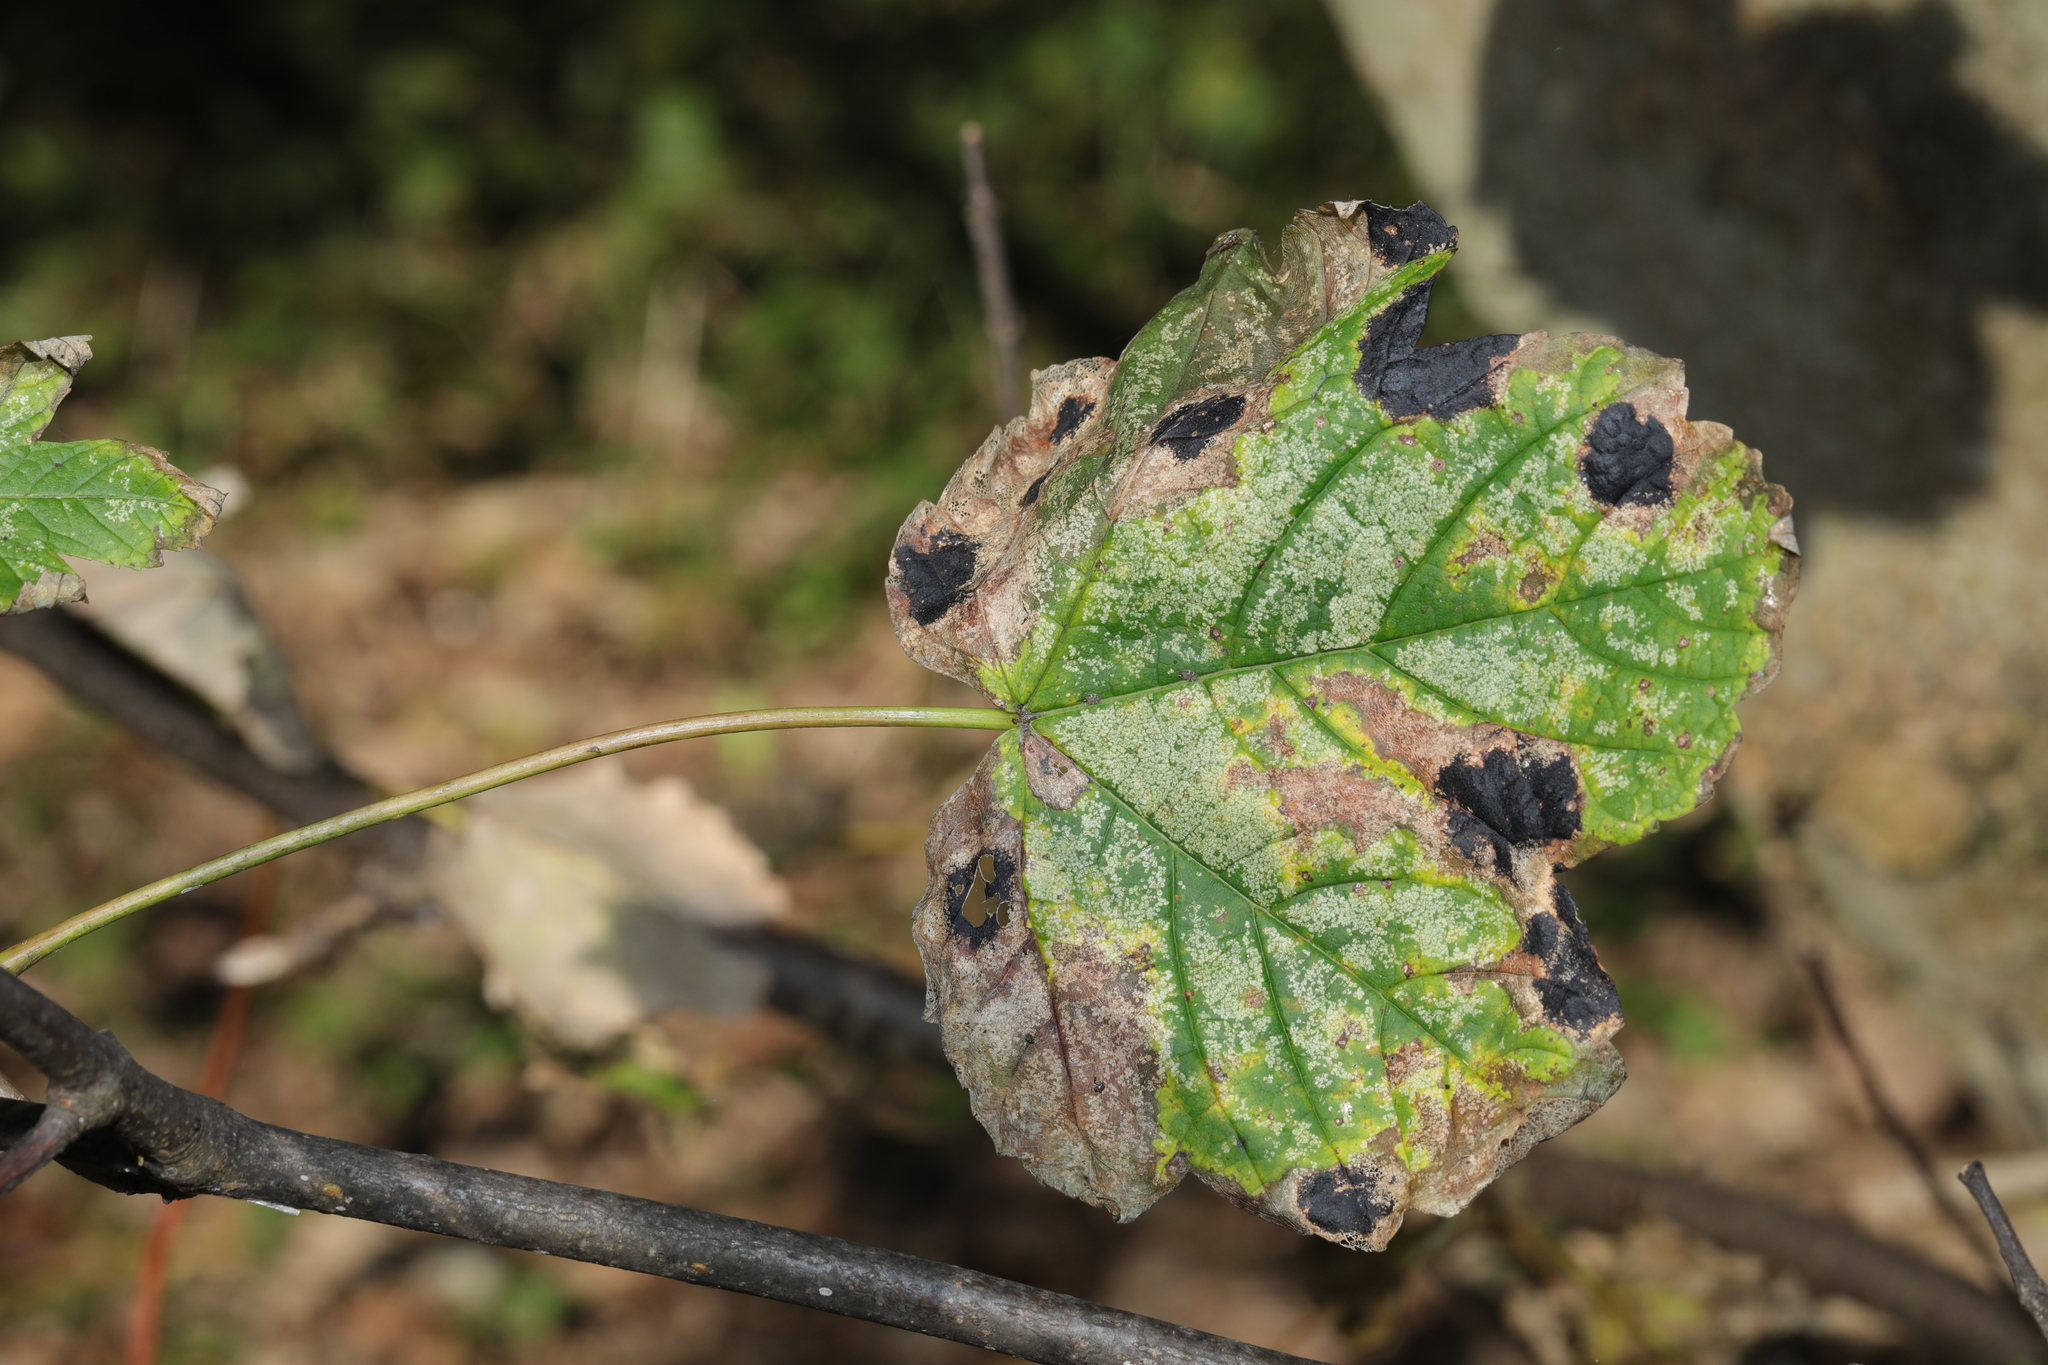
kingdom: Plantae
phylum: Tracheophyta
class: Magnoliopsida
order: Sapindales
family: Sapindaceae
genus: Acer
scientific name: Acer pseudoplatanus
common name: Sycamore
